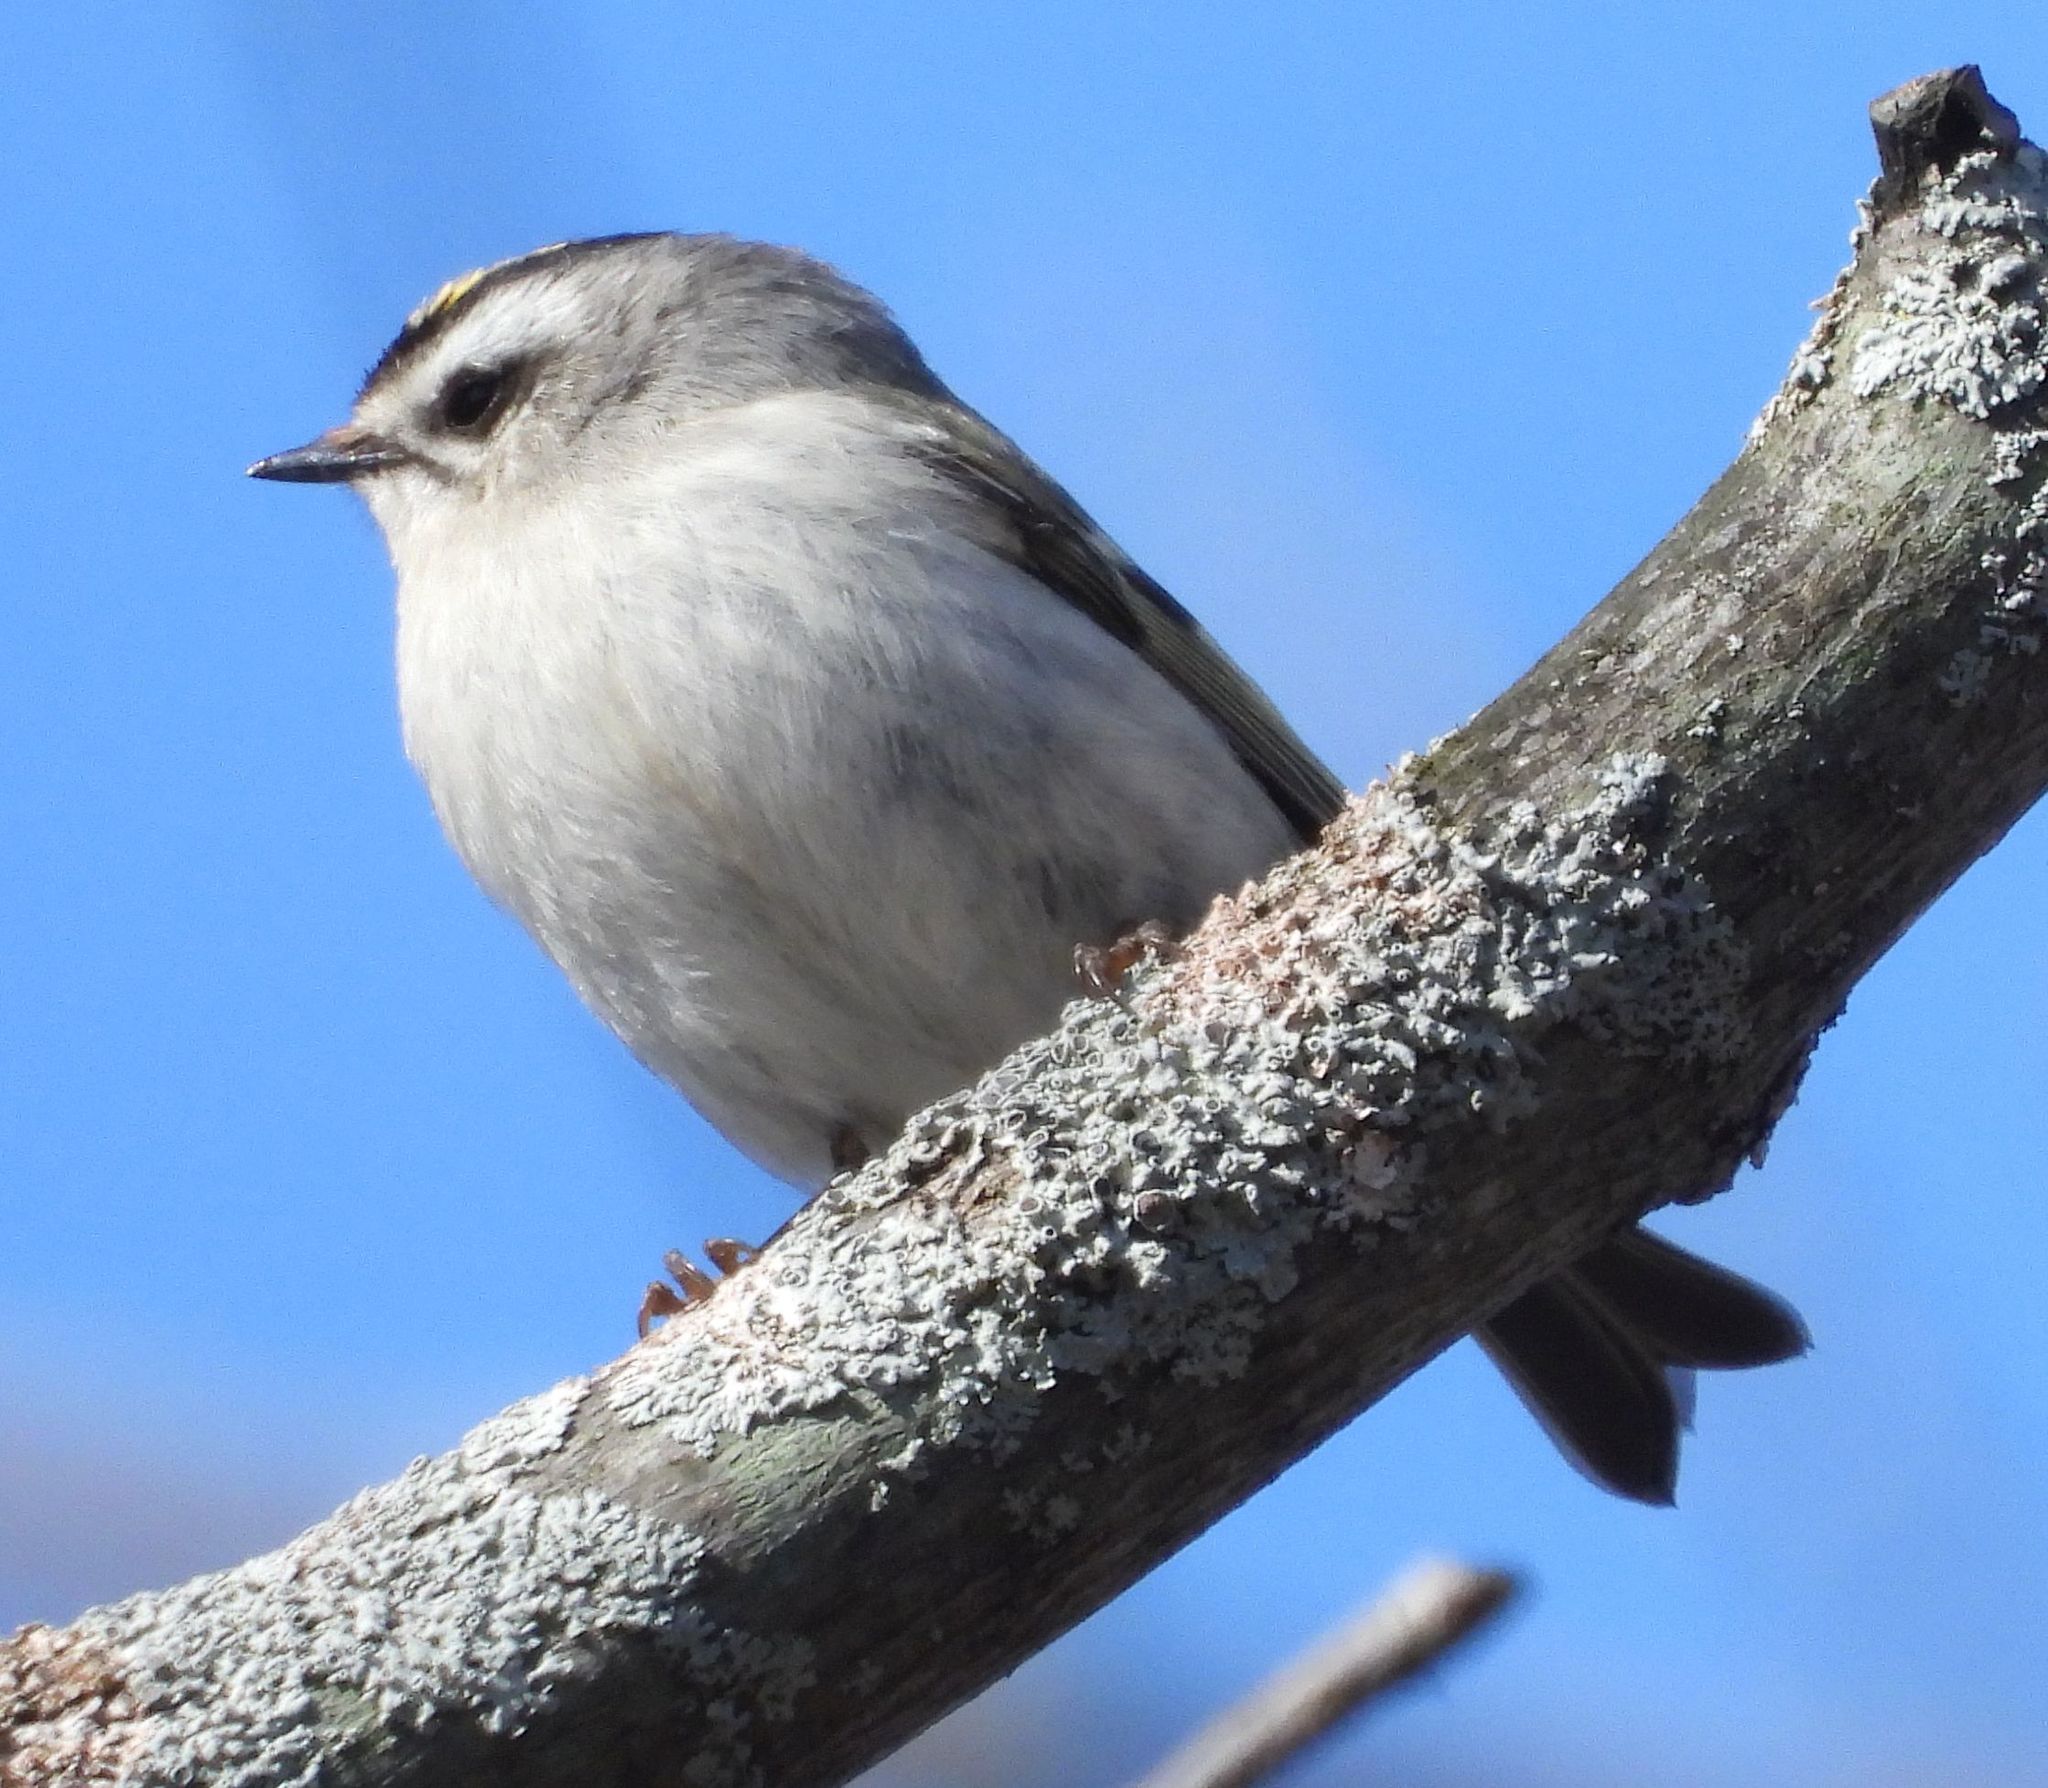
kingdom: Animalia
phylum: Chordata
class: Aves
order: Passeriformes
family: Regulidae
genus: Regulus
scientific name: Regulus satrapa
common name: Golden-crowned kinglet
